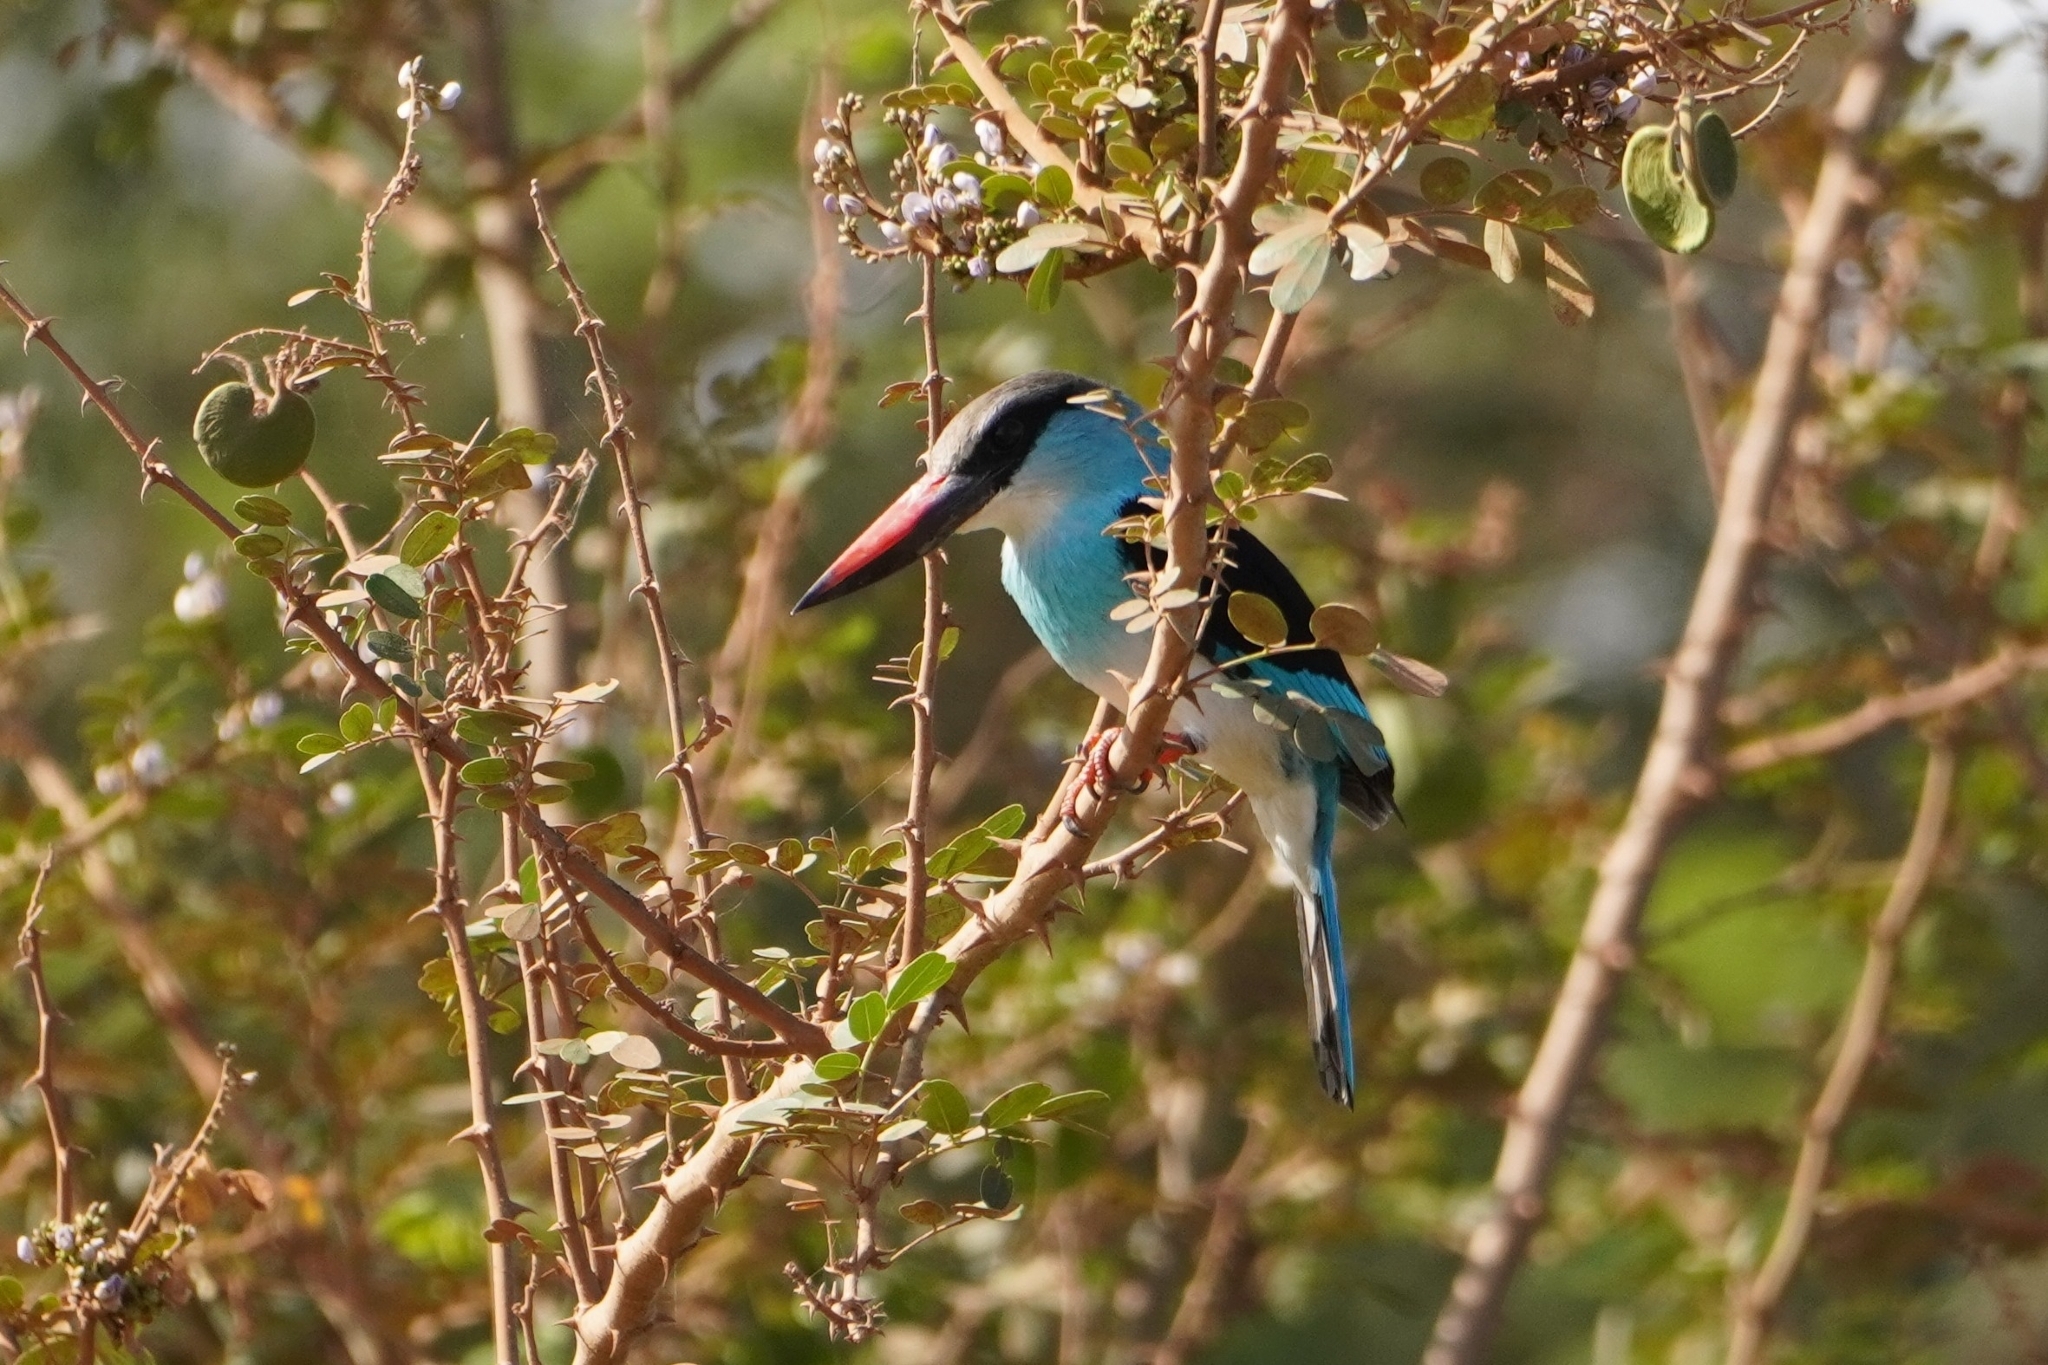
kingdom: Animalia
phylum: Chordata
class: Aves
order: Coraciiformes
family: Alcedinidae
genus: Halcyon
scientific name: Halcyon malimbica
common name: Blue-breasted kingfisher
